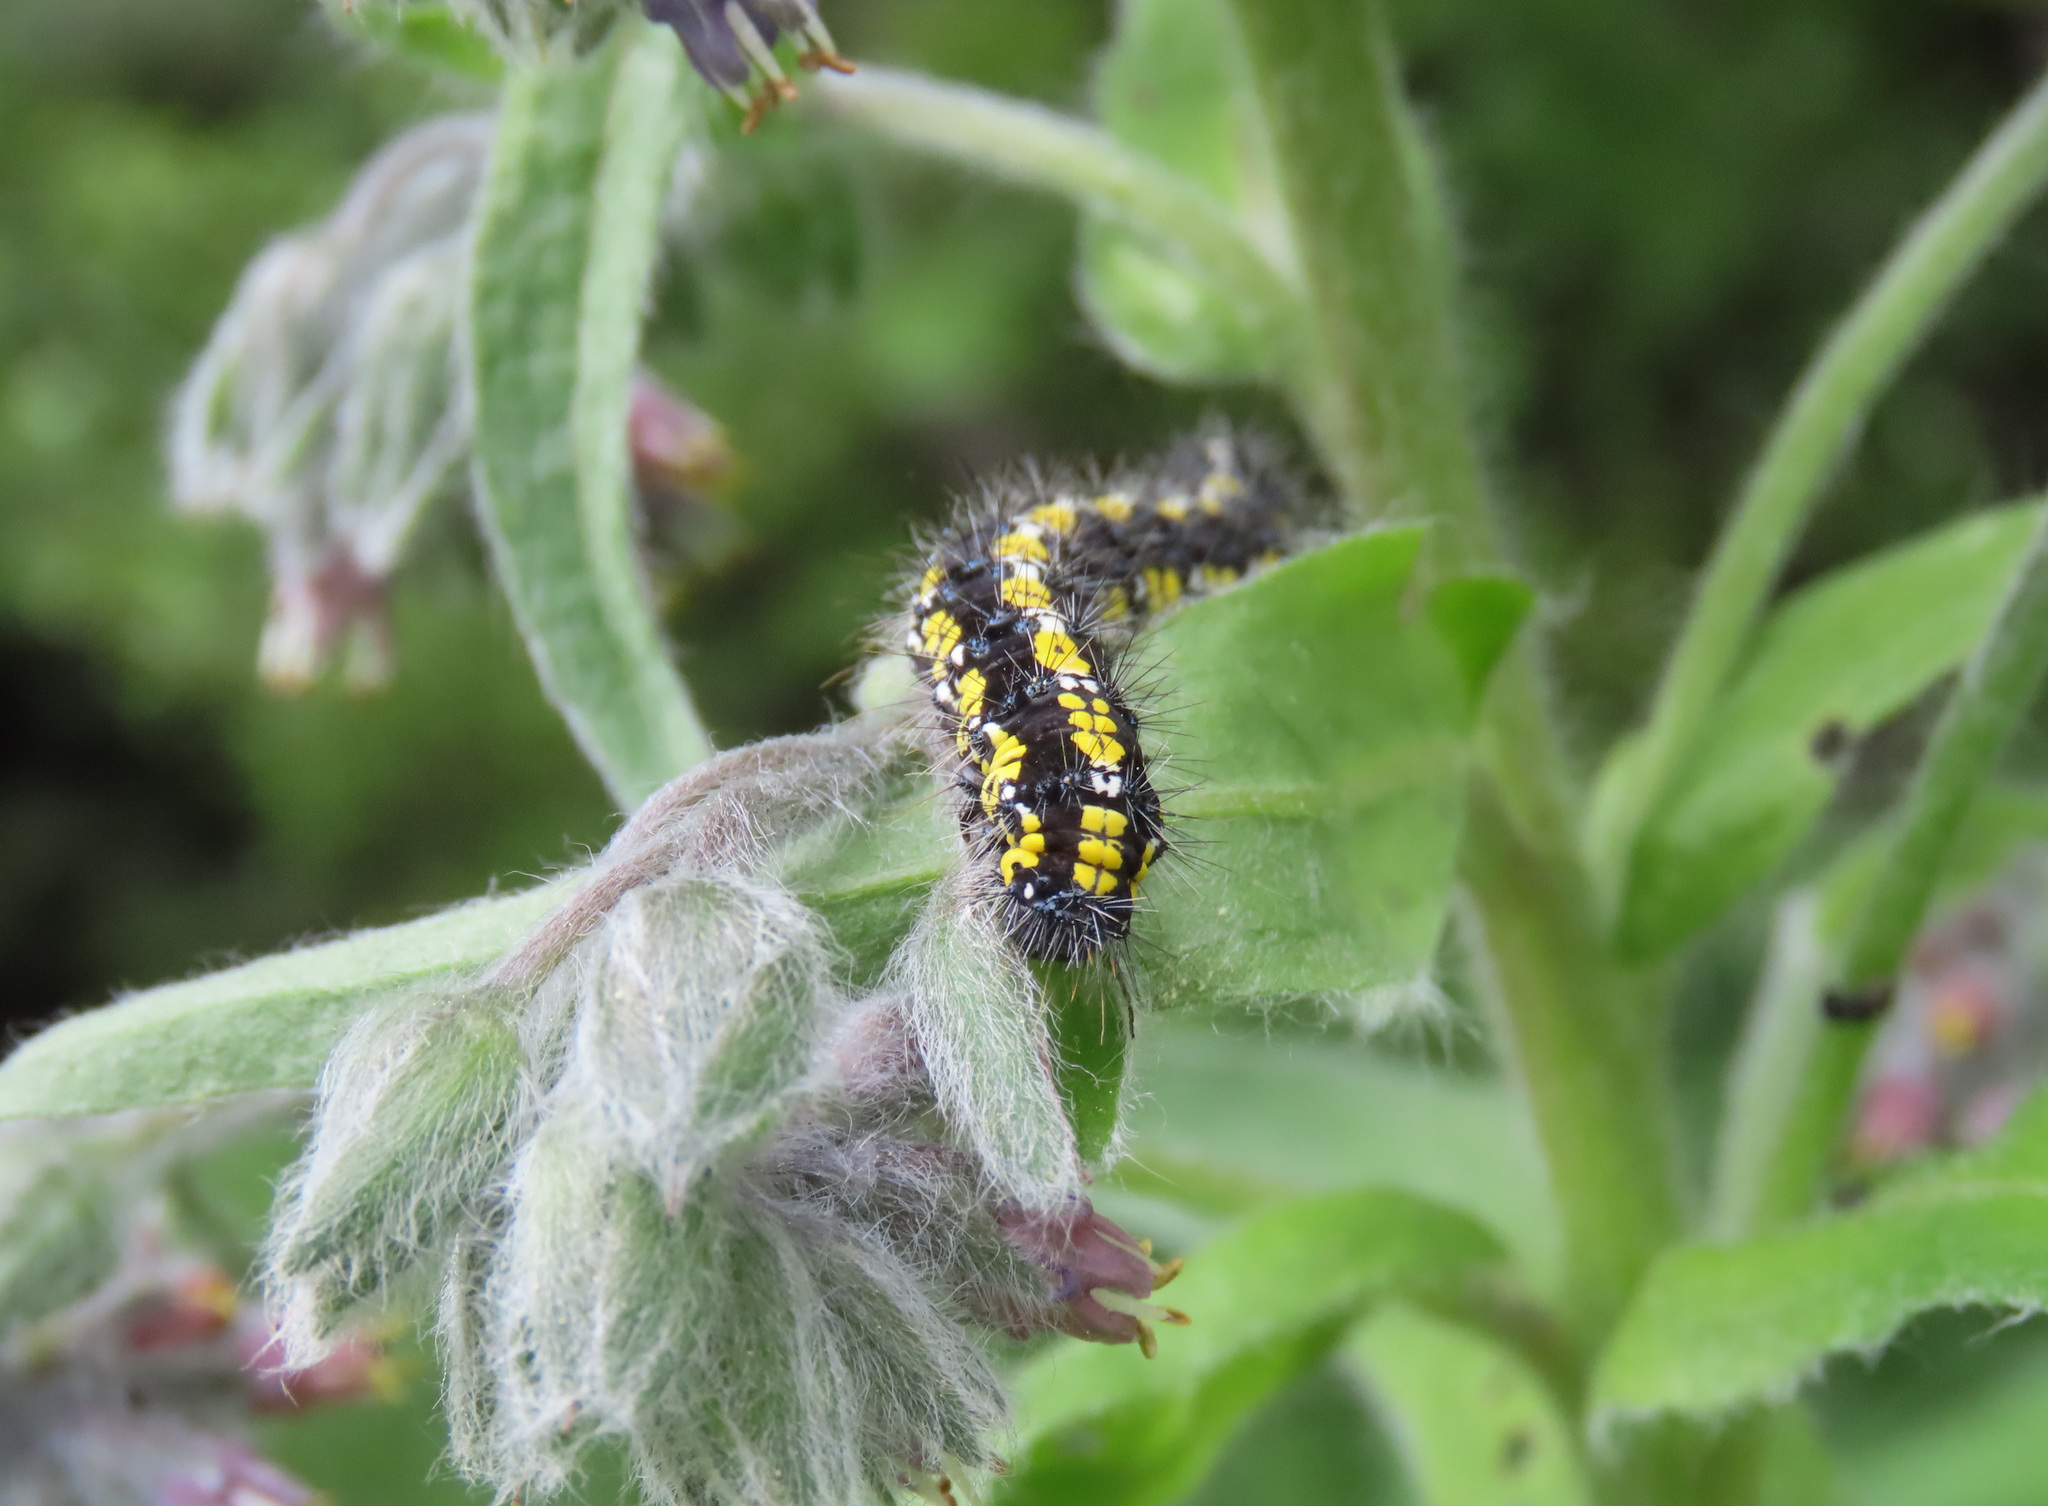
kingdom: Animalia
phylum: Arthropoda
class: Insecta
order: Lepidoptera
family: Erebidae
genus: Callimorpha
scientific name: Callimorpha dominula
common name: Scarlet tiger
